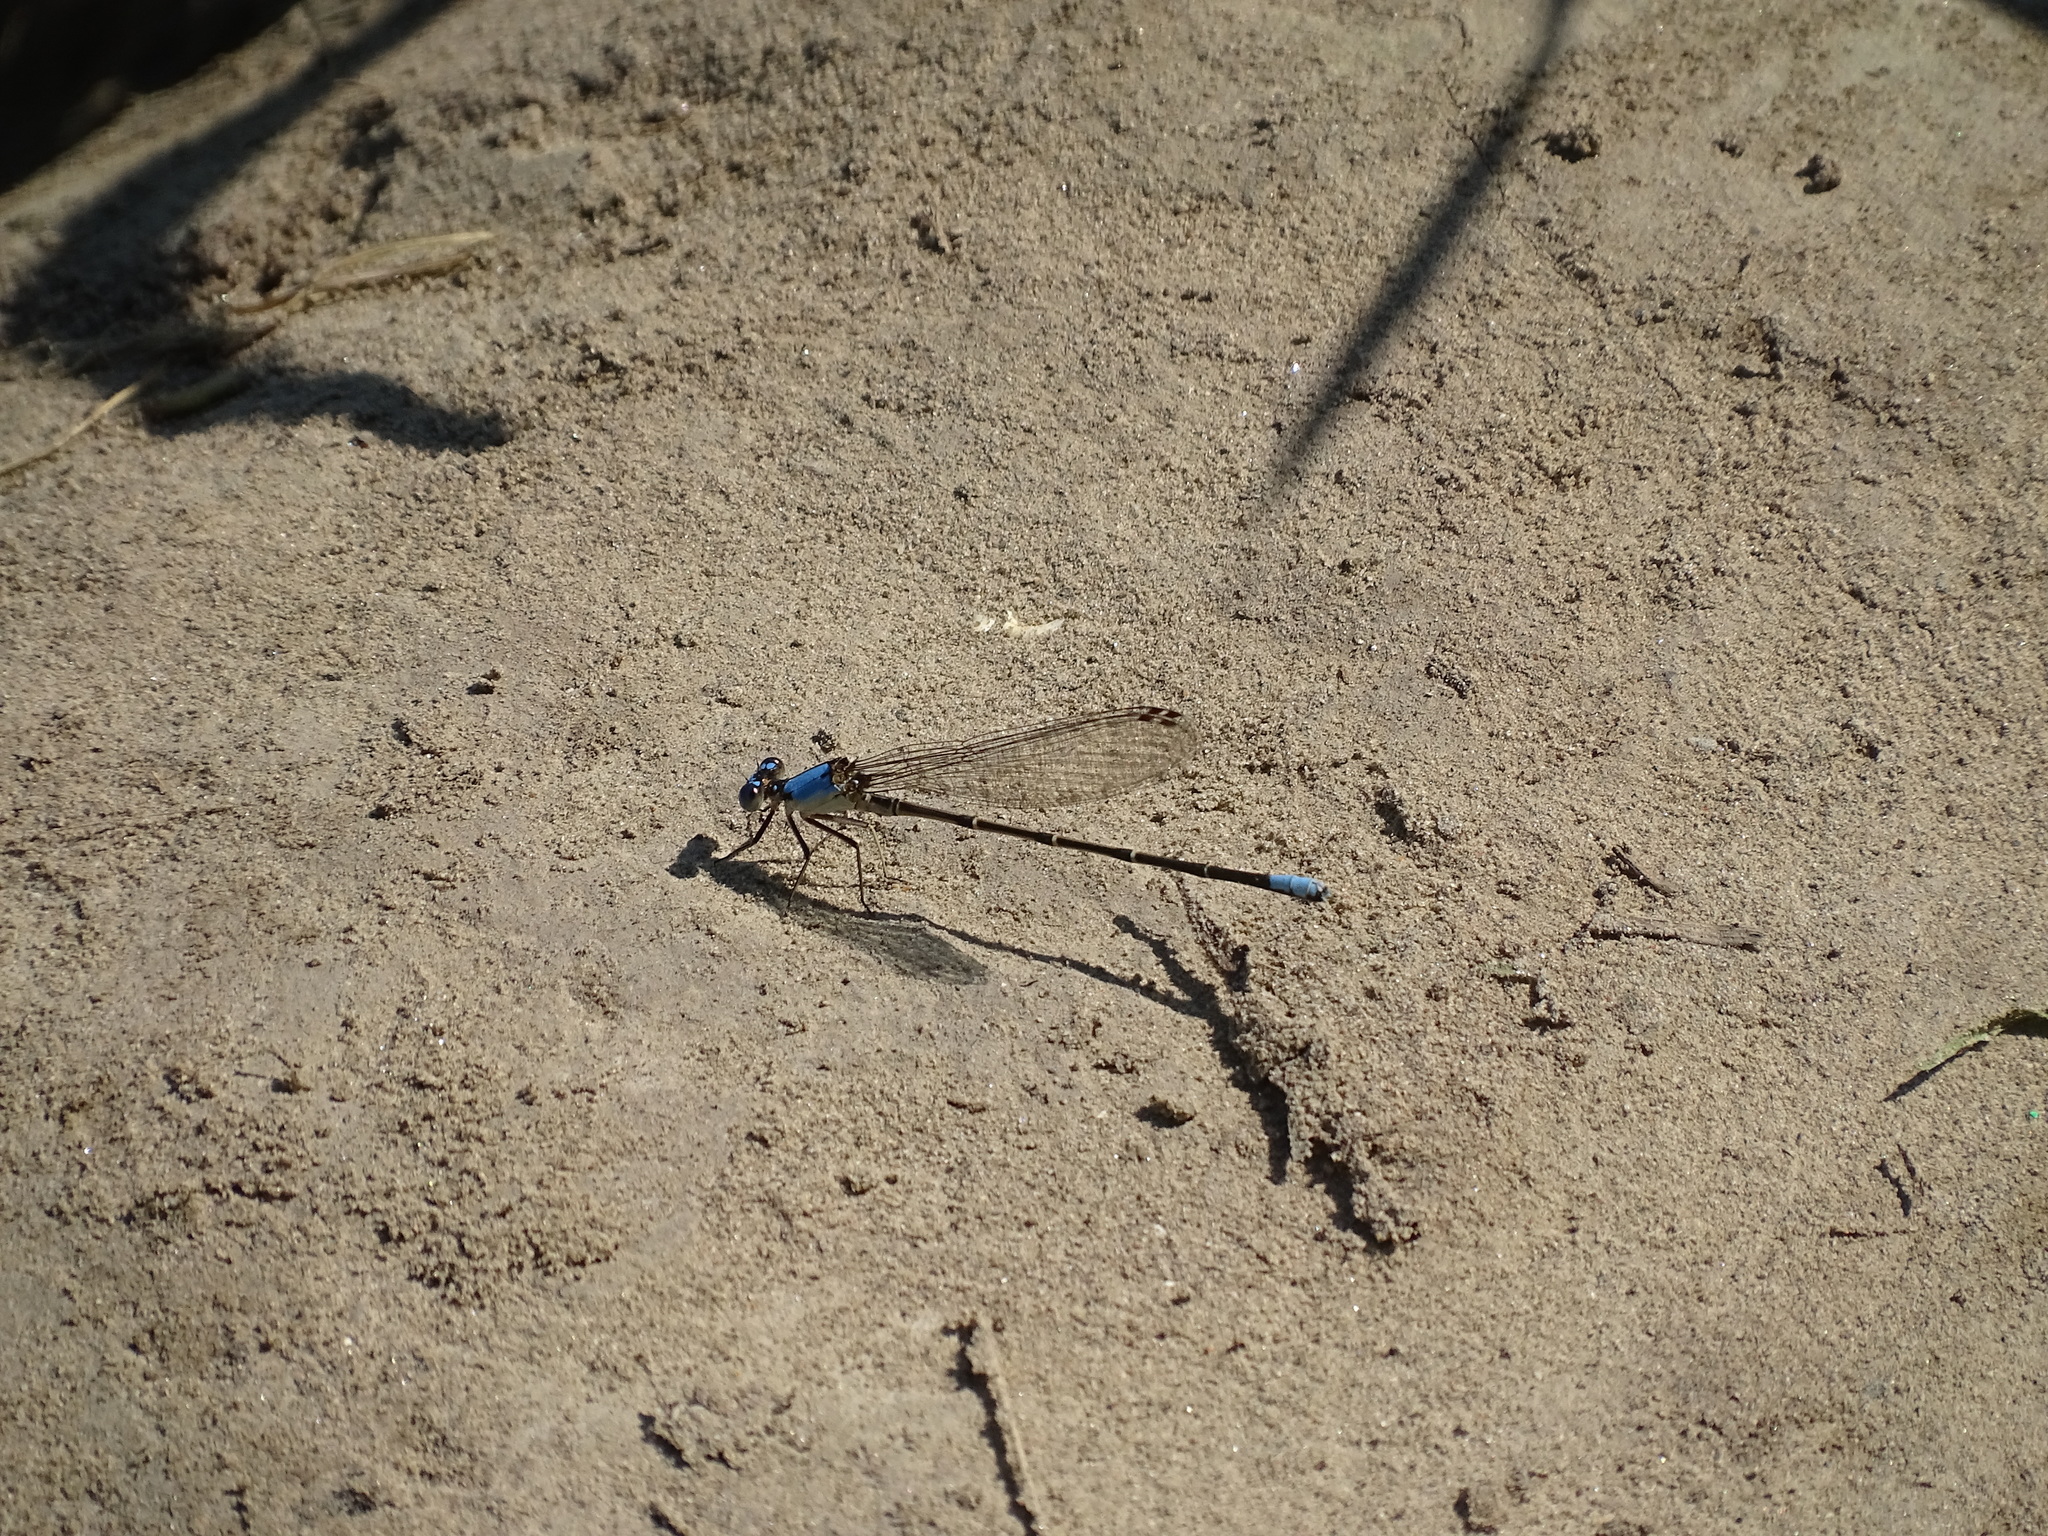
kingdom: Animalia
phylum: Arthropoda
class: Insecta
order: Odonata
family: Coenagrionidae
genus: Argia
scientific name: Argia apicalis
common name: Blue-fronted dancer
